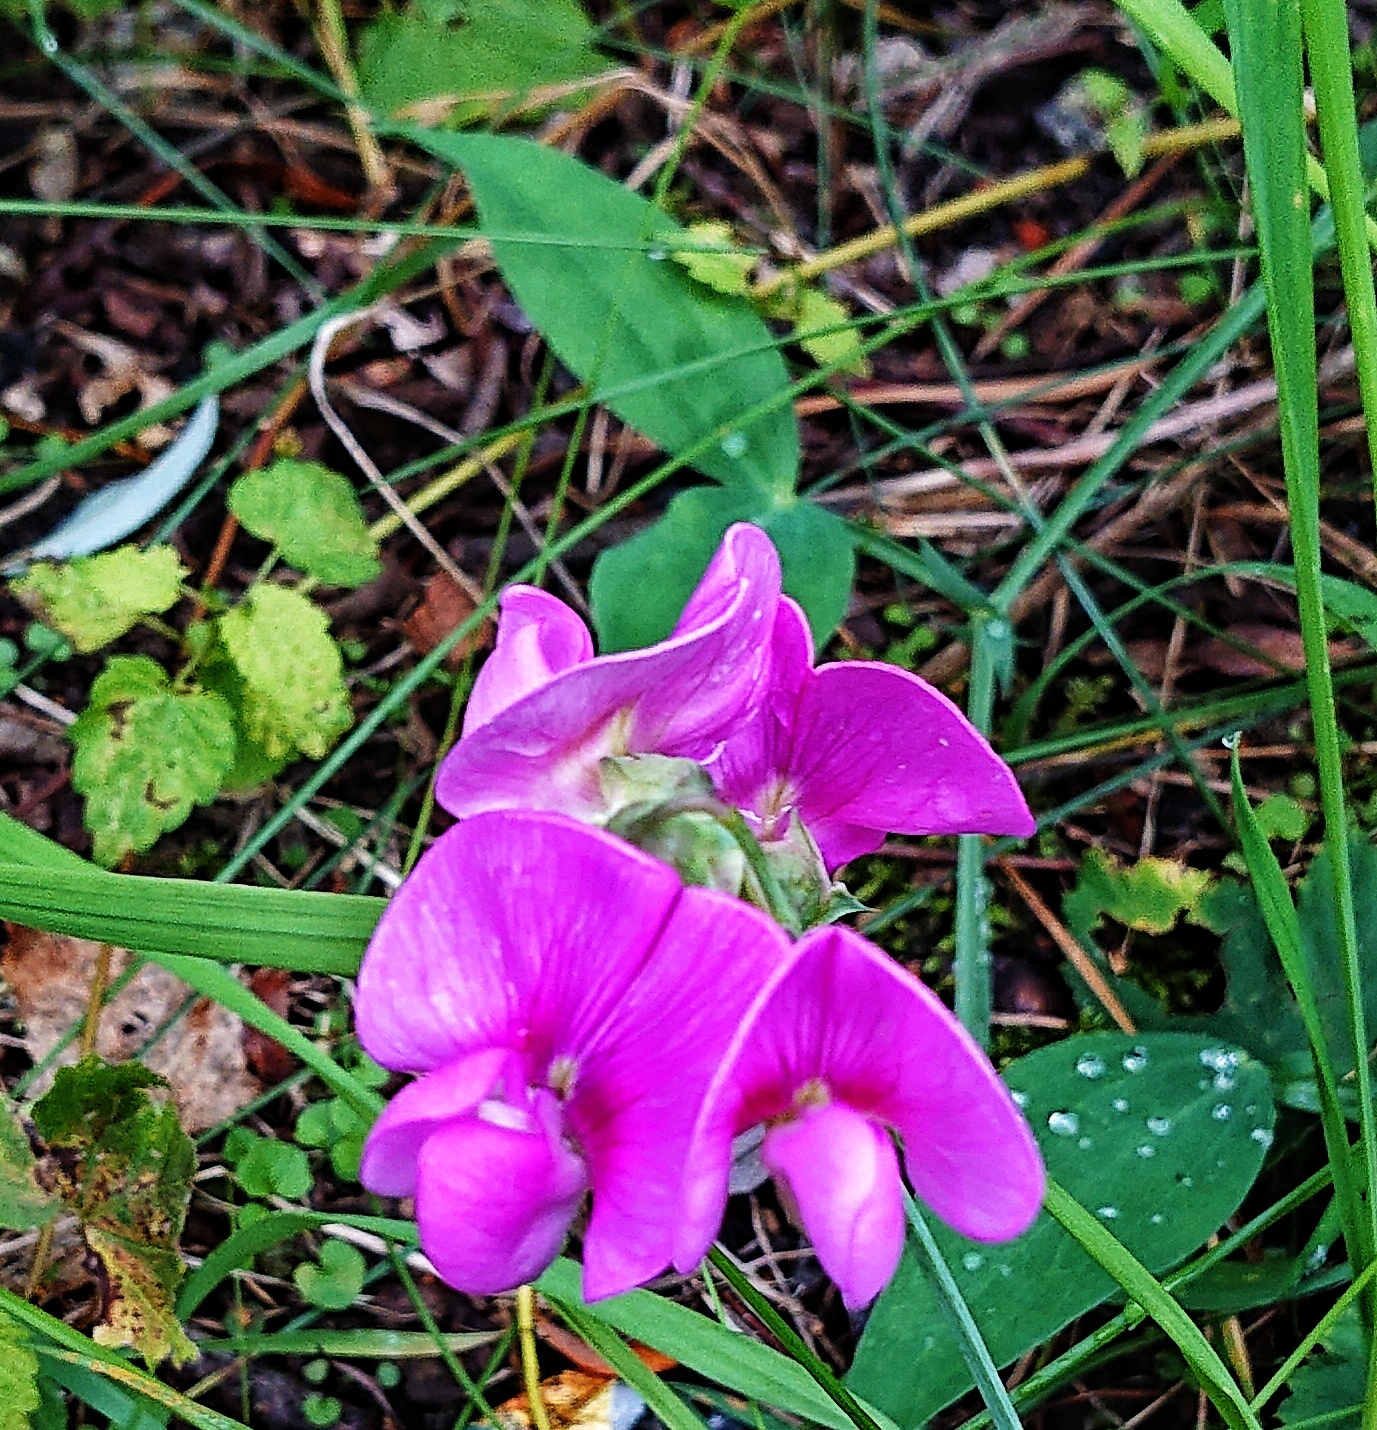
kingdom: Plantae
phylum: Tracheophyta
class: Magnoliopsida
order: Fabales
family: Fabaceae
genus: Lathyrus
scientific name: Lathyrus latifolius
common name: Perennial pea
